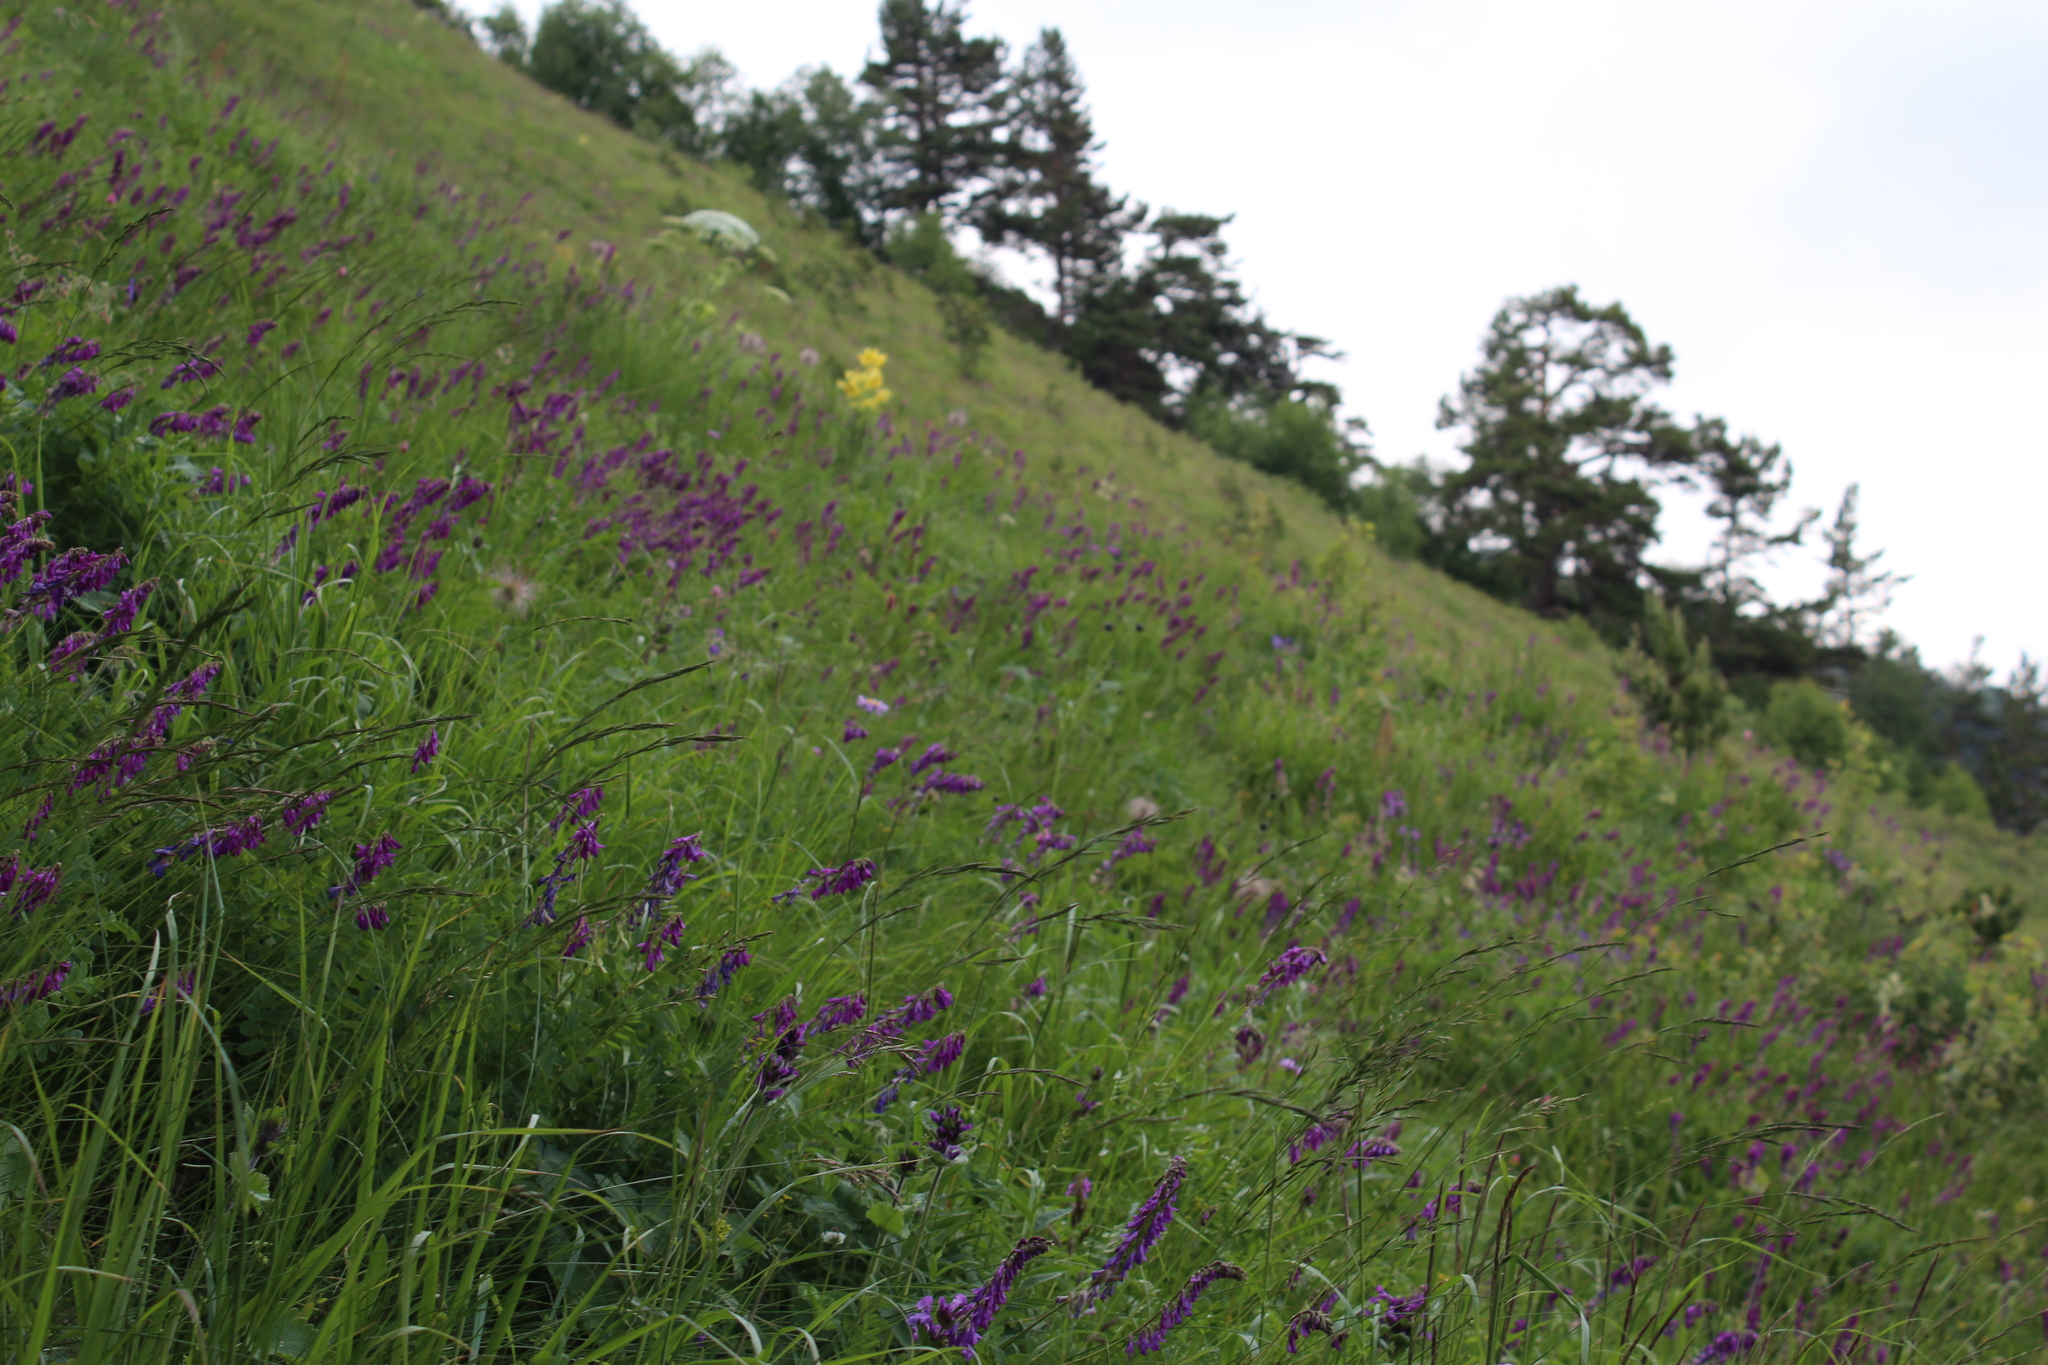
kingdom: Plantae
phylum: Tracheophyta
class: Magnoliopsida
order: Fabales
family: Fabaceae
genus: Hedysarum
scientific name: Hedysarum caucasicum
